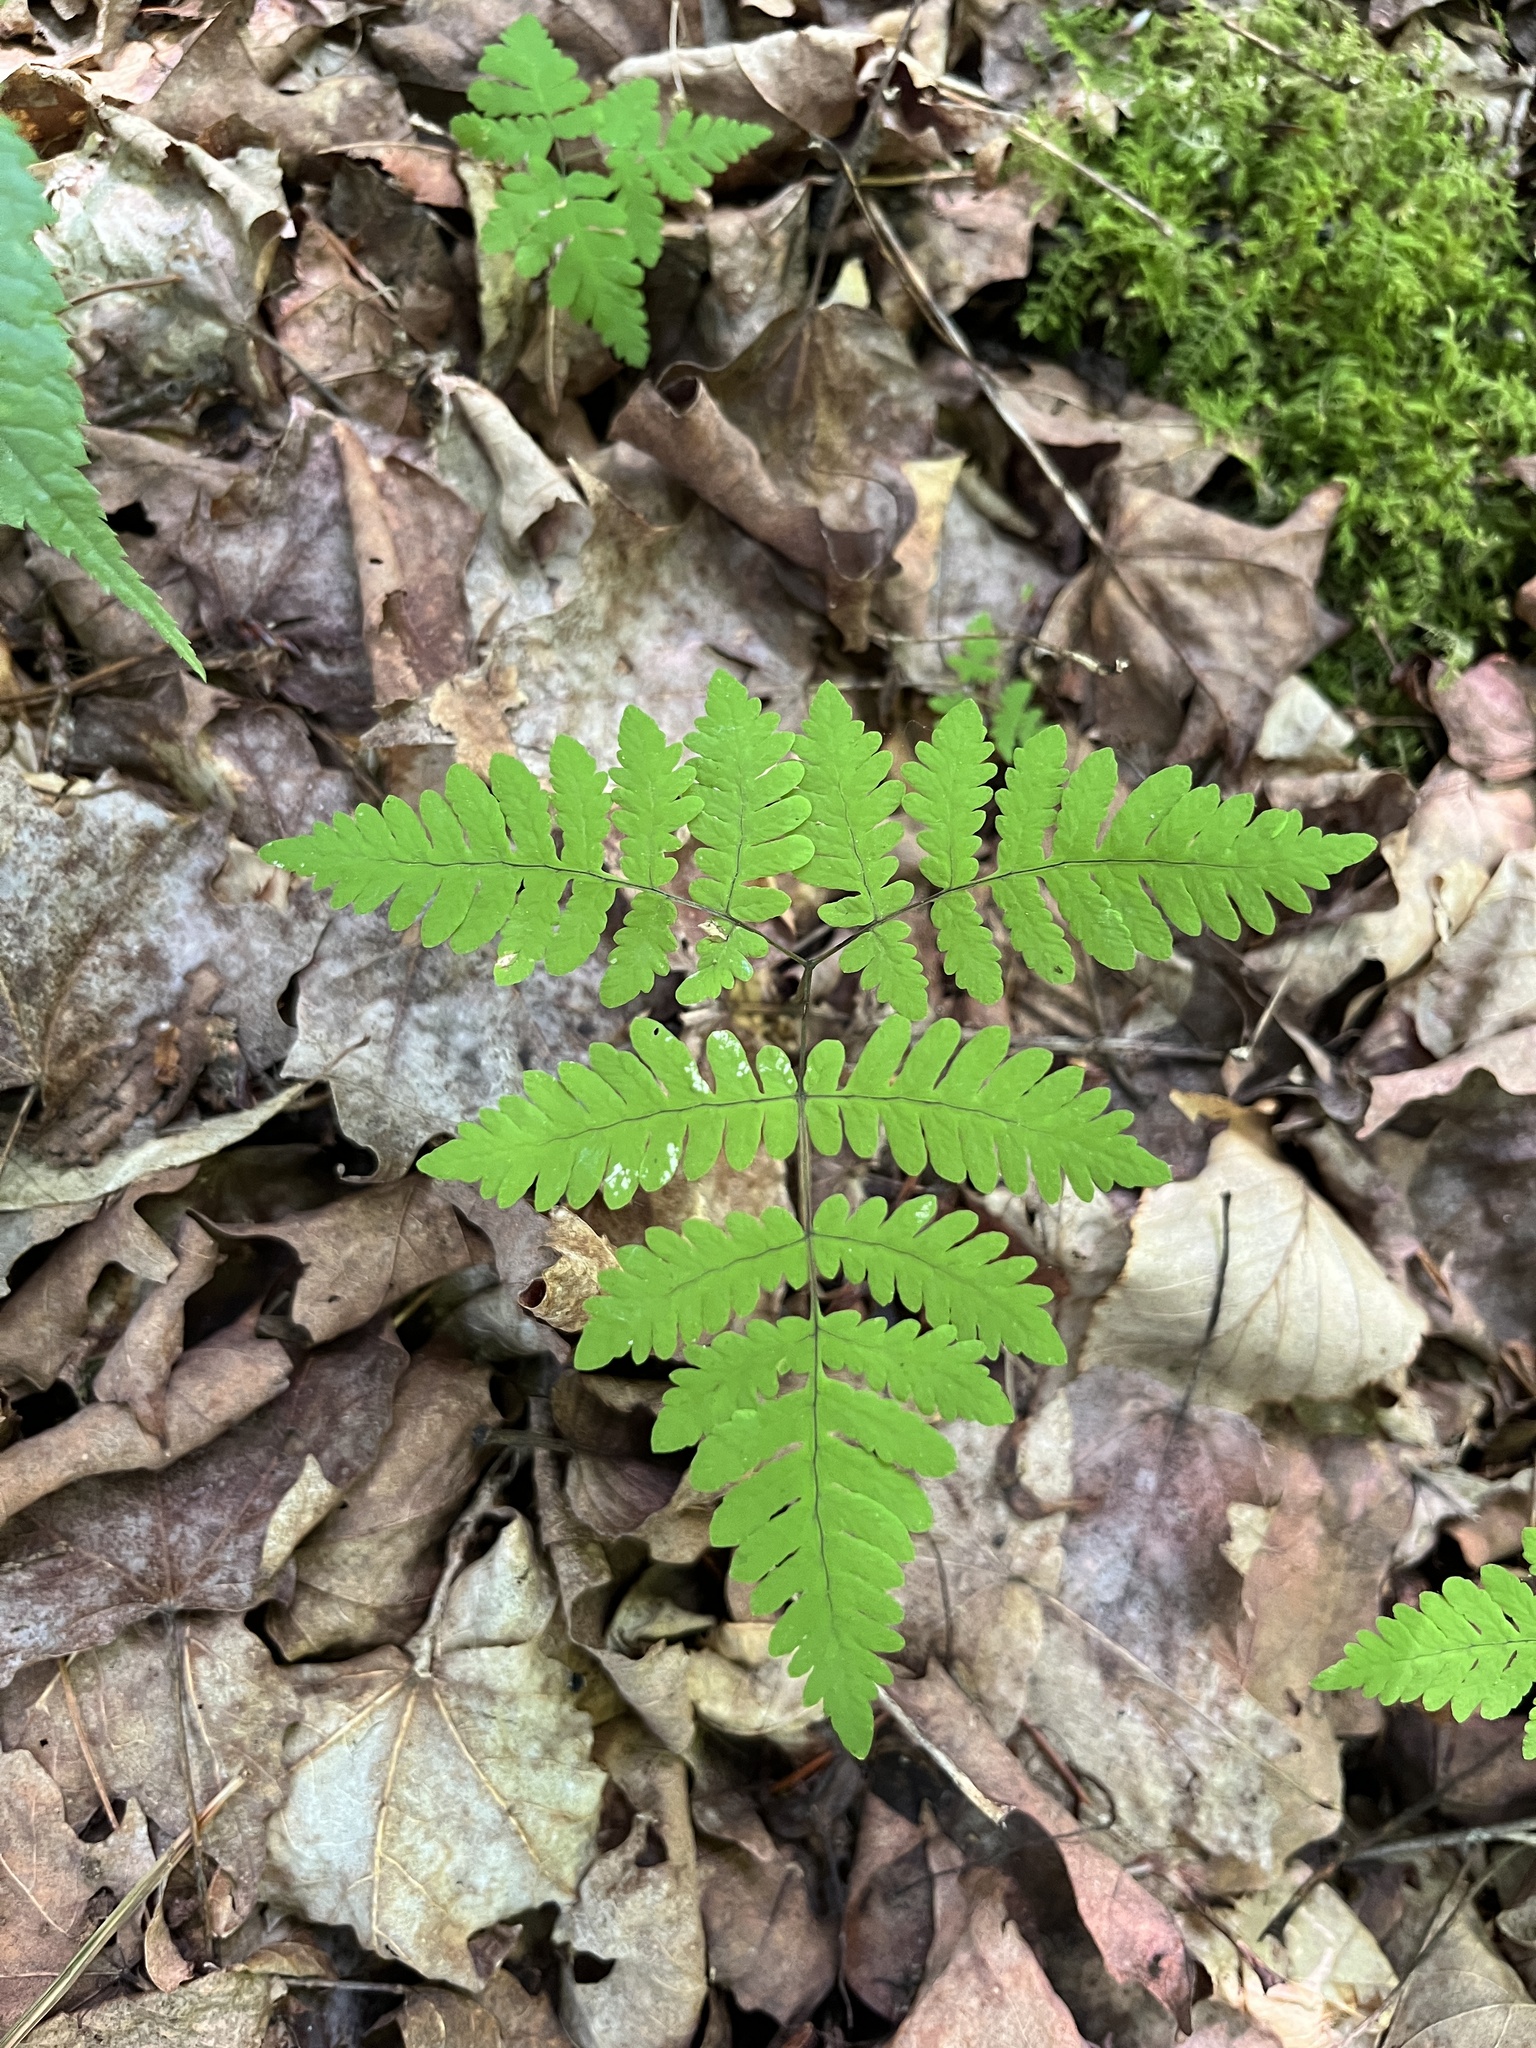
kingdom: Plantae
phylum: Tracheophyta
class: Polypodiopsida
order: Polypodiales
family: Cystopteridaceae
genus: Gymnocarpium
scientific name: Gymnocarpium dryopteris
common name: Oak fern
